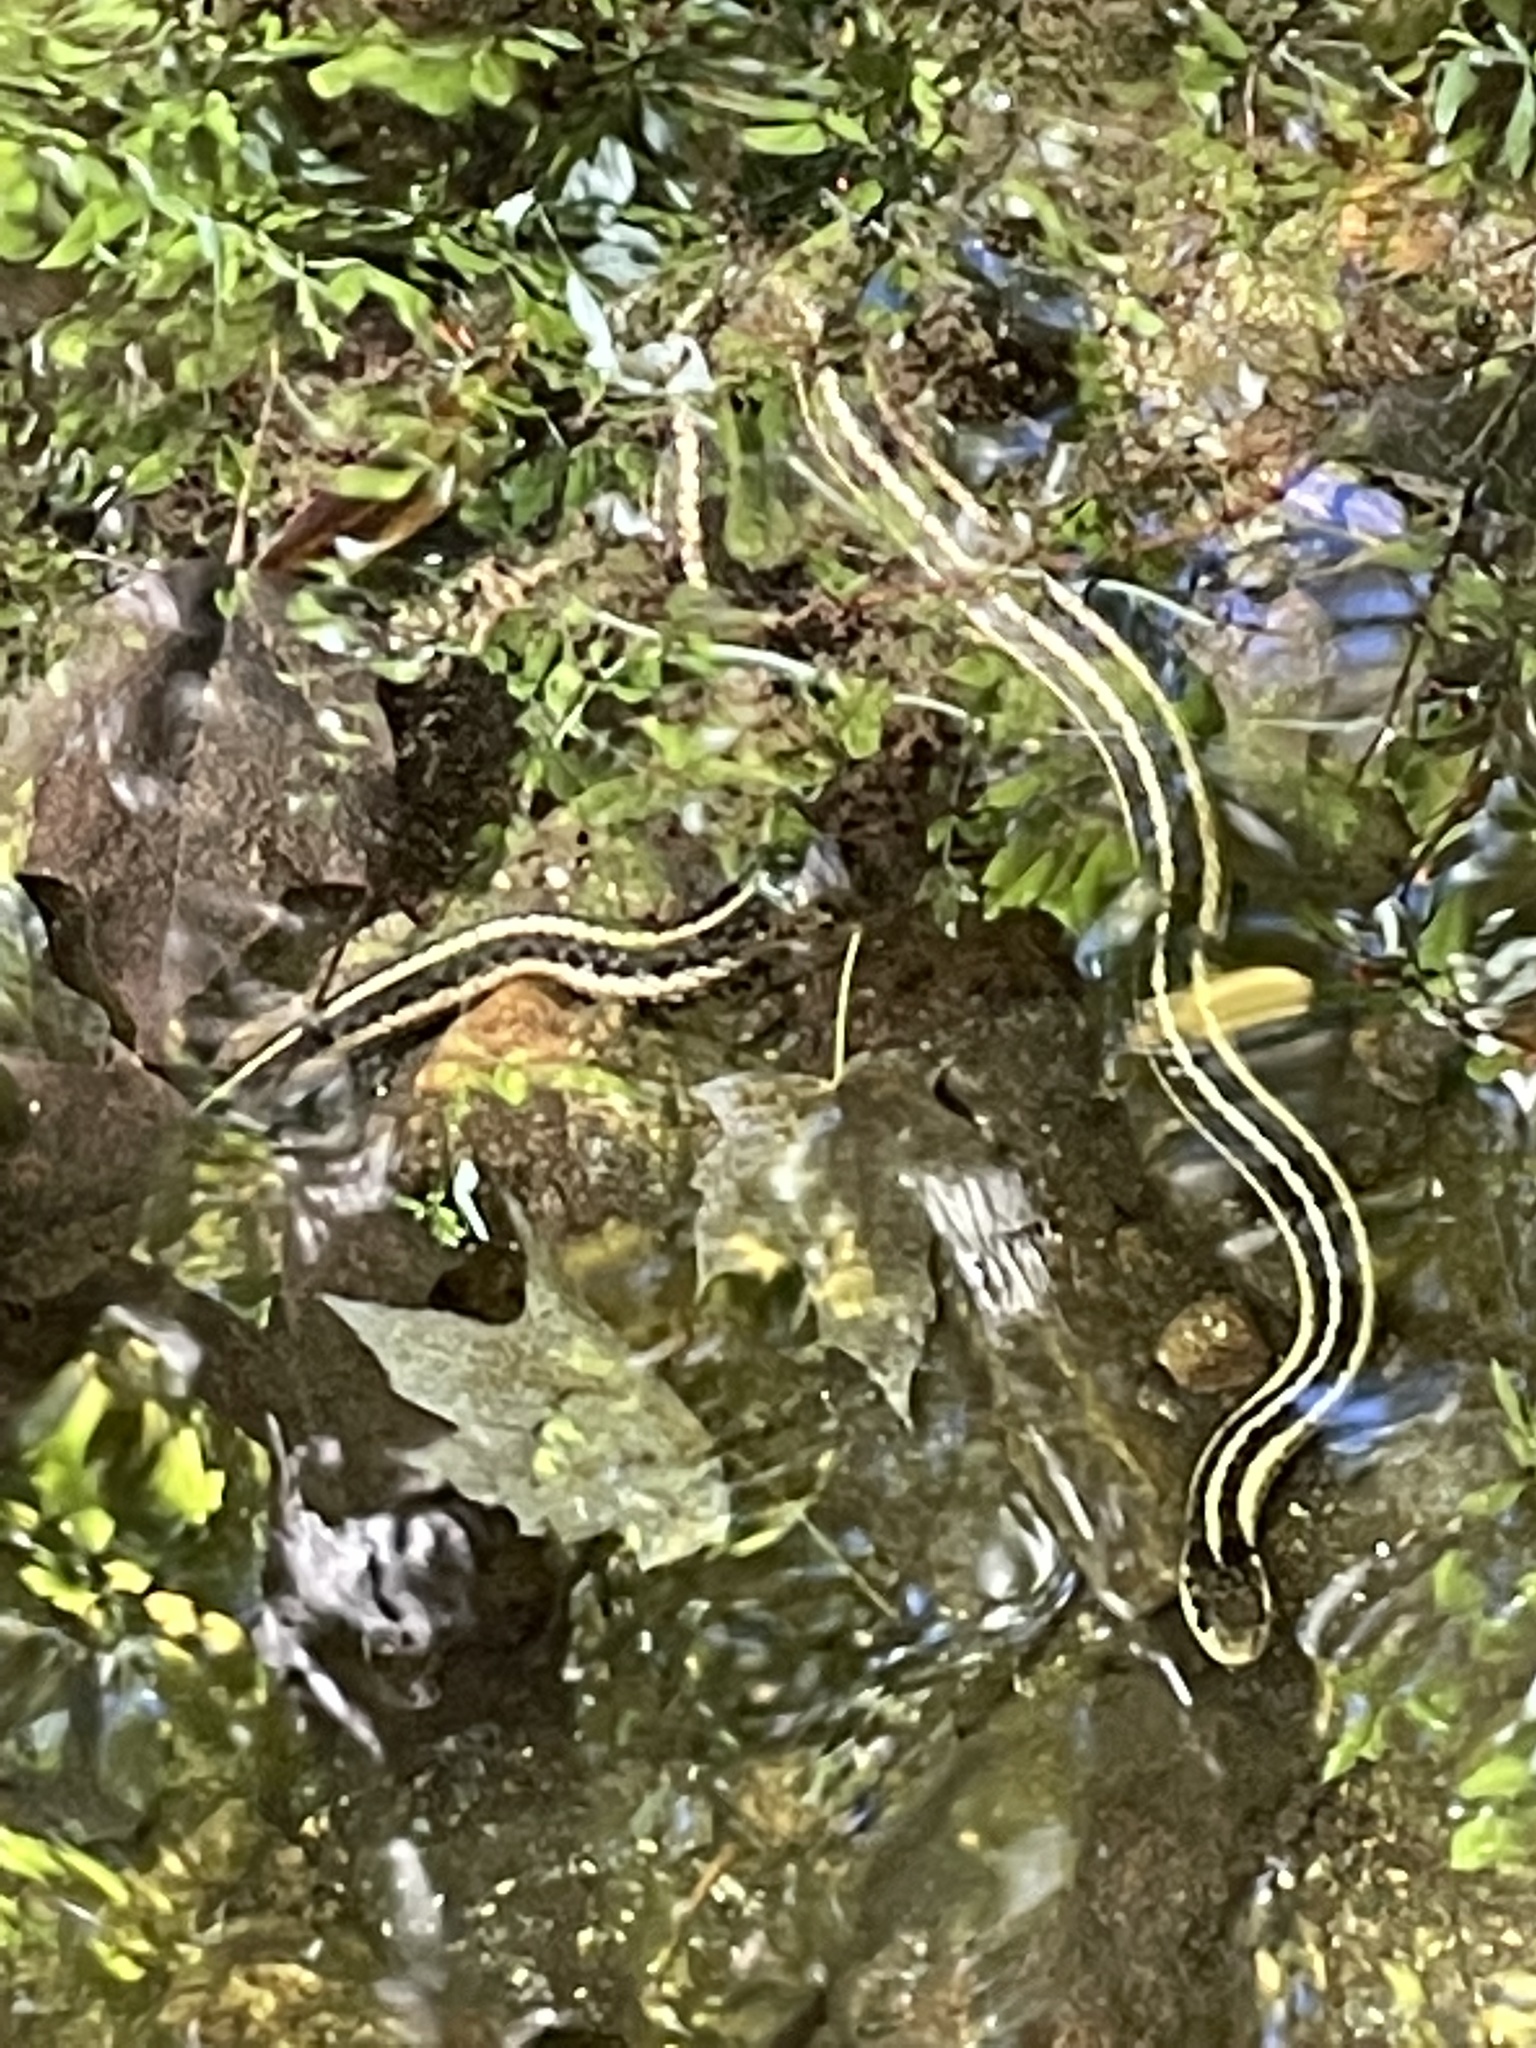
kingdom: Animalia
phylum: Chordata
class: Squamata
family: Colubridae
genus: Thamnophis
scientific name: Thamnophis sirtalis
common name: Common garter snake
